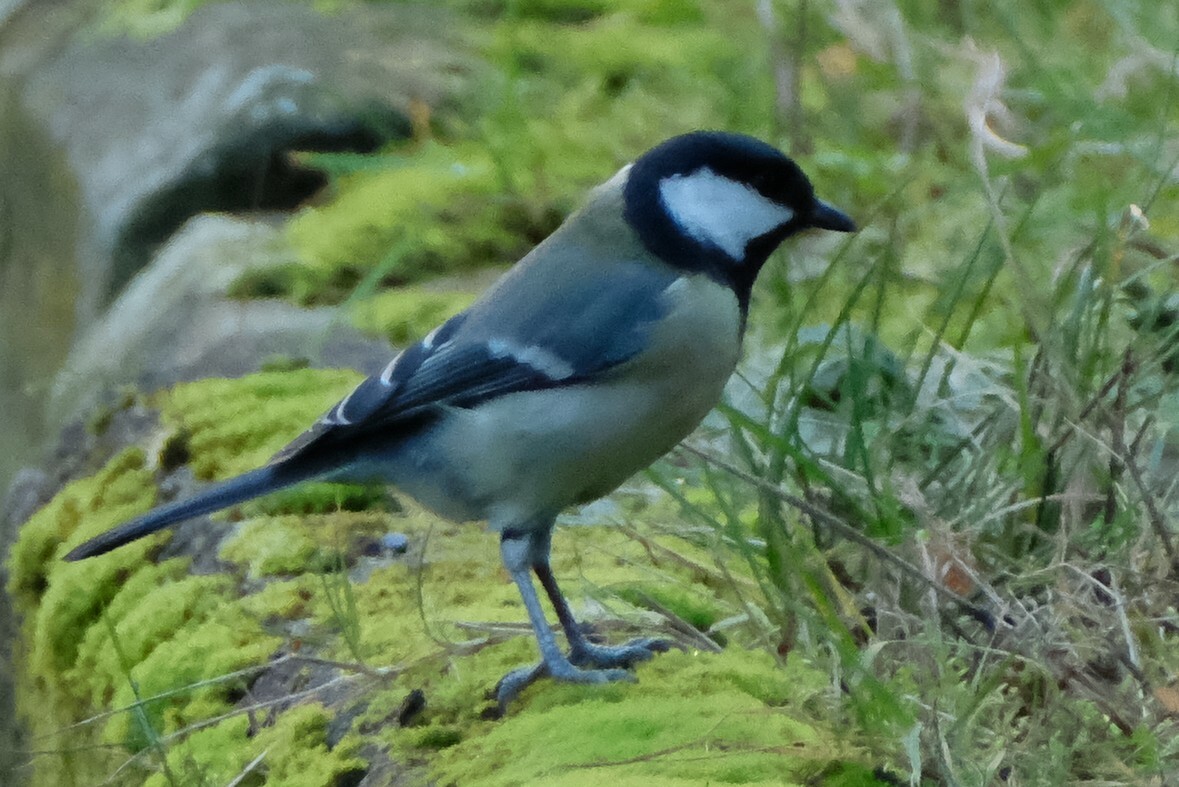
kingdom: Animalia
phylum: Chordata
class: Aves
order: Passeriformes
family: Paridae
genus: Parus
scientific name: Parus major
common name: Great tit
